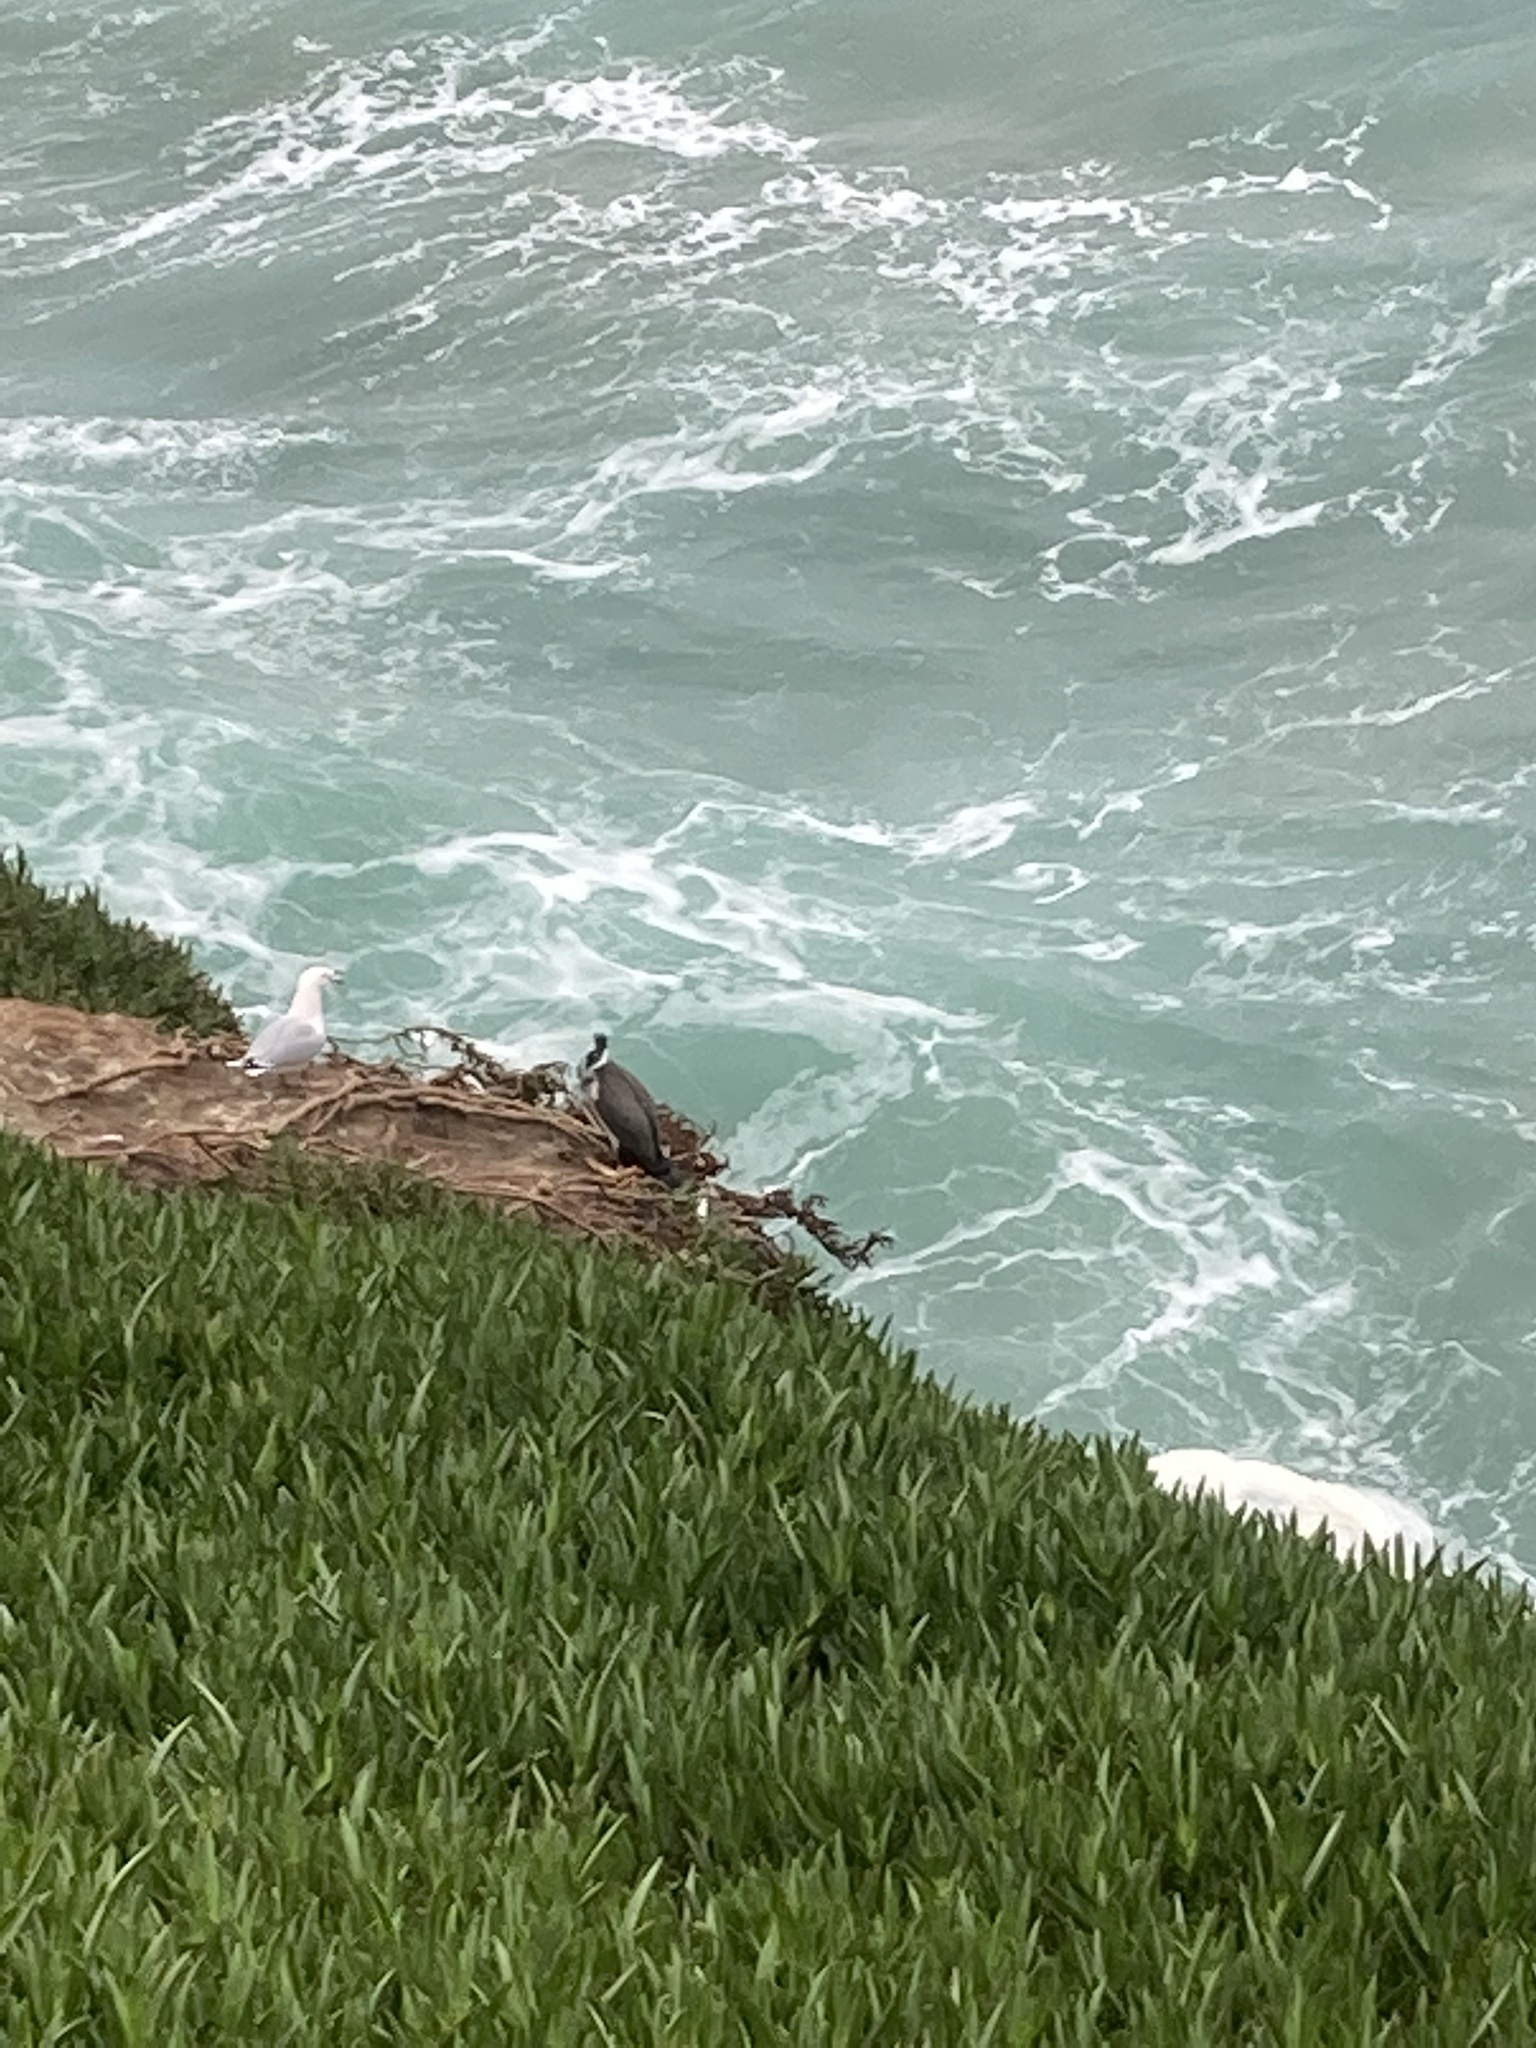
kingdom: Animalia
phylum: Chordata
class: Aves
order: Suliformes
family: Phalacrocoracidae
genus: Phalacrocorax
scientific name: Phalacrocorax punctatus
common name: Spotted shag
